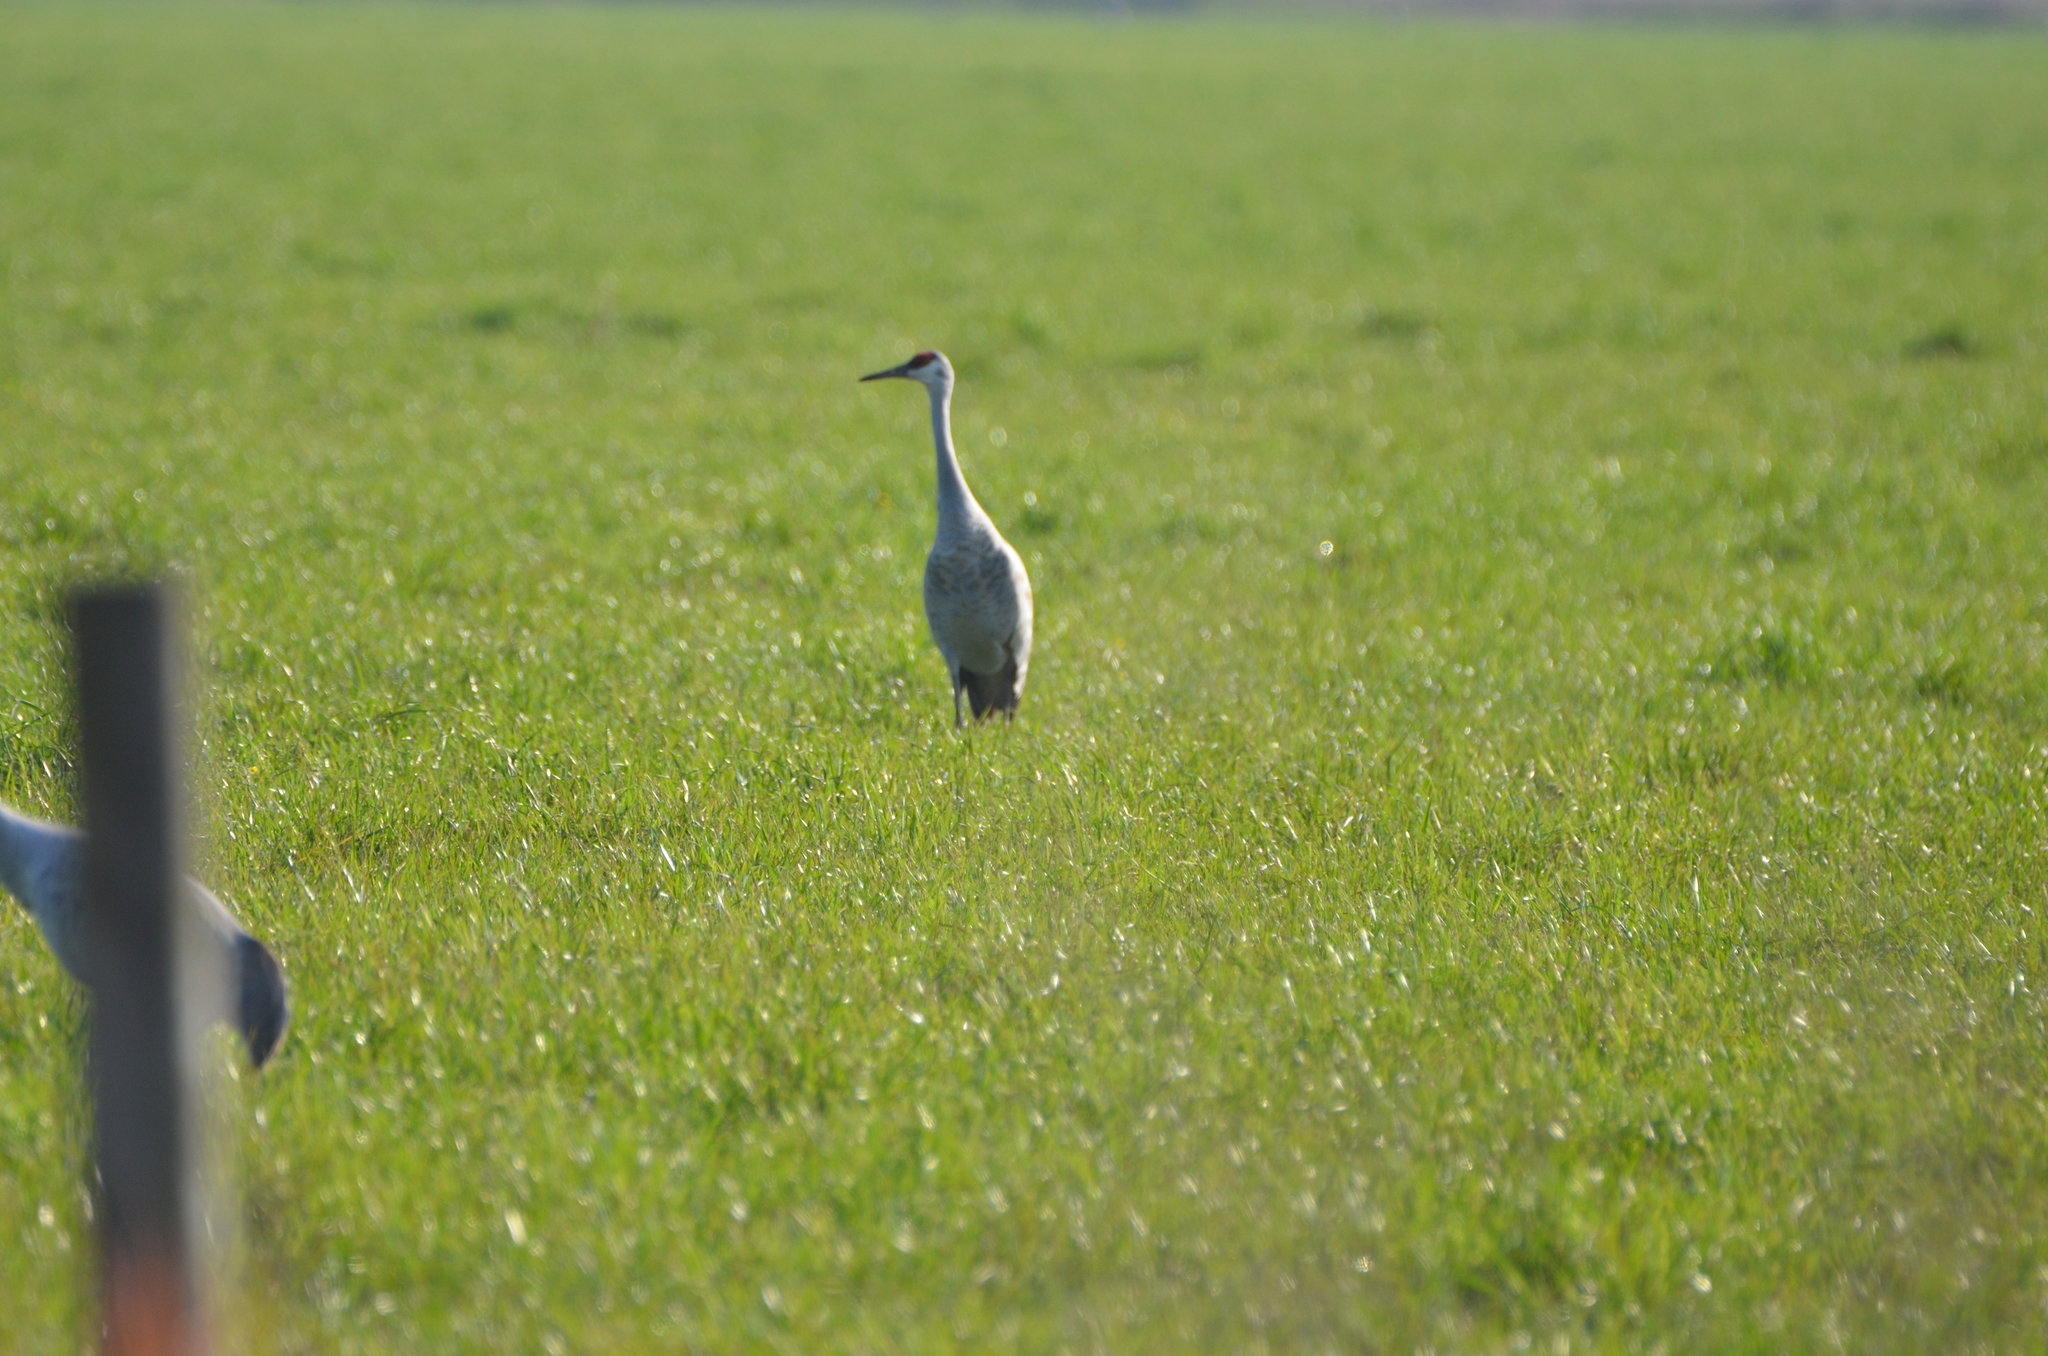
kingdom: Animalia
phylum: Chordata
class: Aves
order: Gruiformes
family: Gruidae
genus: Grus
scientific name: Grus canadensis
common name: Sandhill crane
